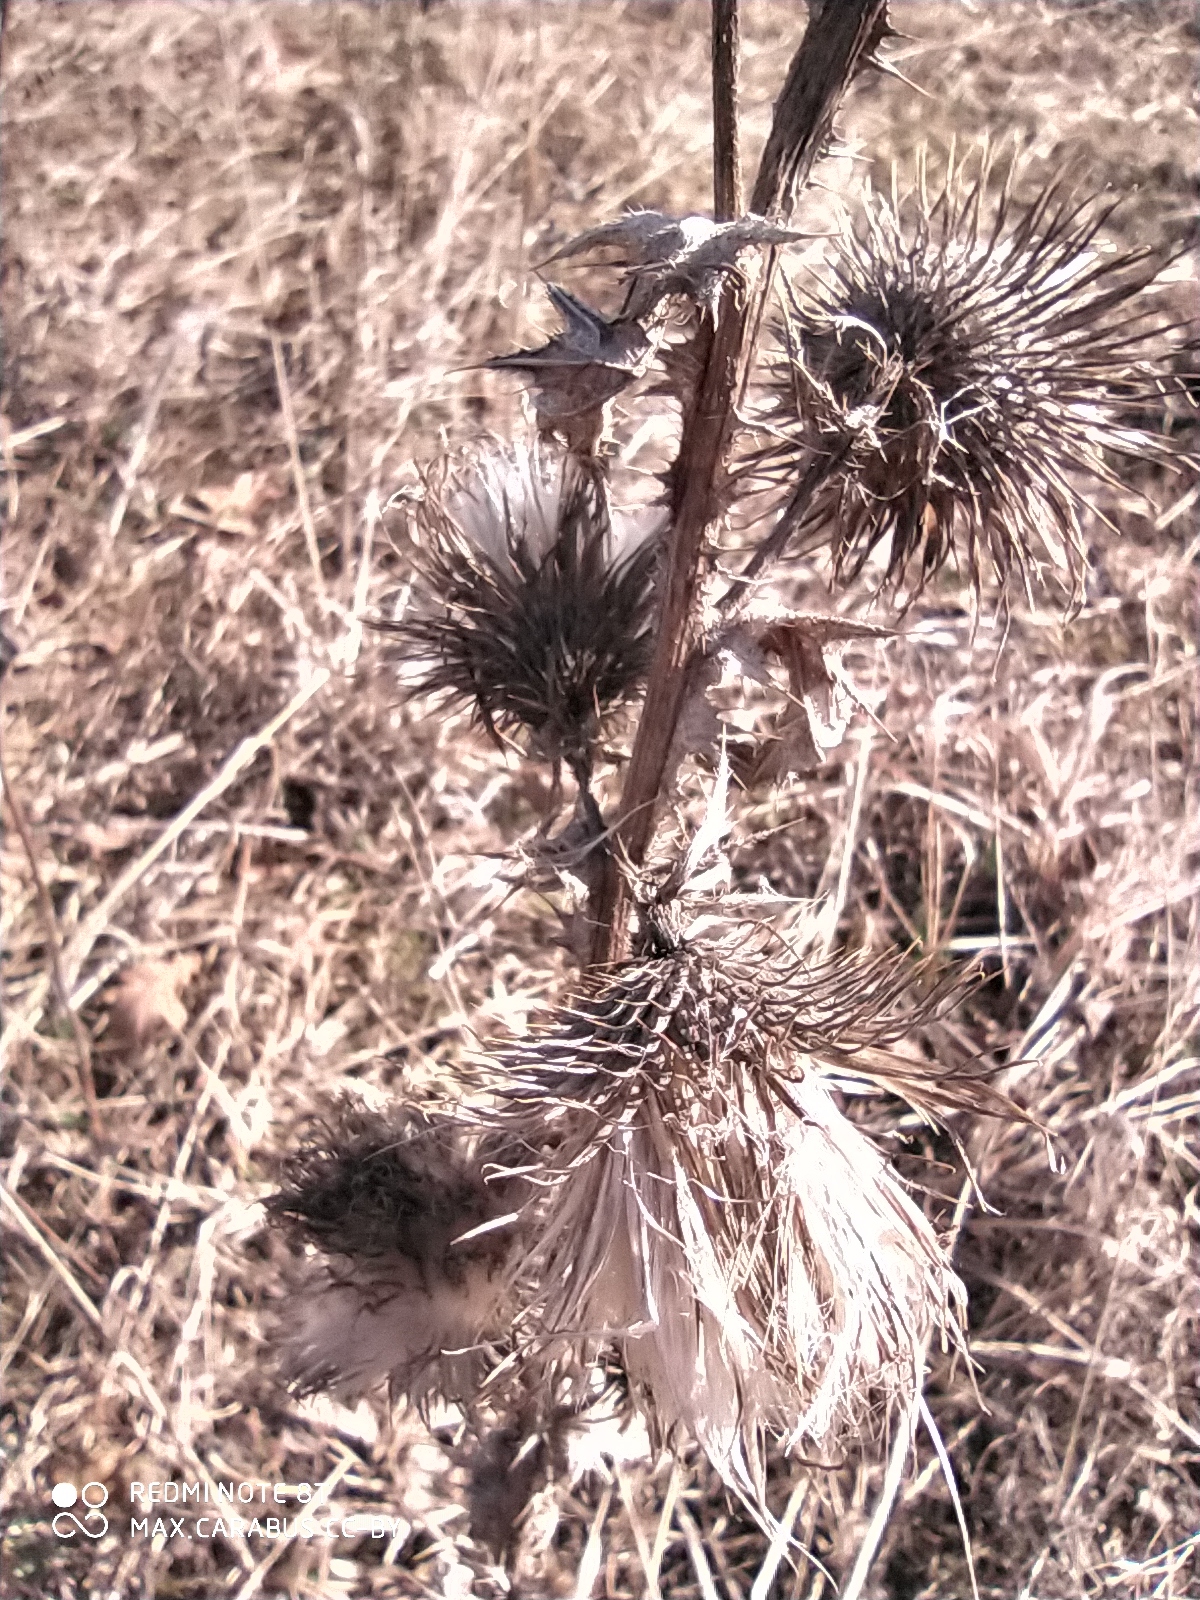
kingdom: Plantae
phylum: Tracheophyta
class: Magnoliopsida
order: Asterales
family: Asteraceae
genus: Cirsium
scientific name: Cirsium vulgare
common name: Bull thistle
